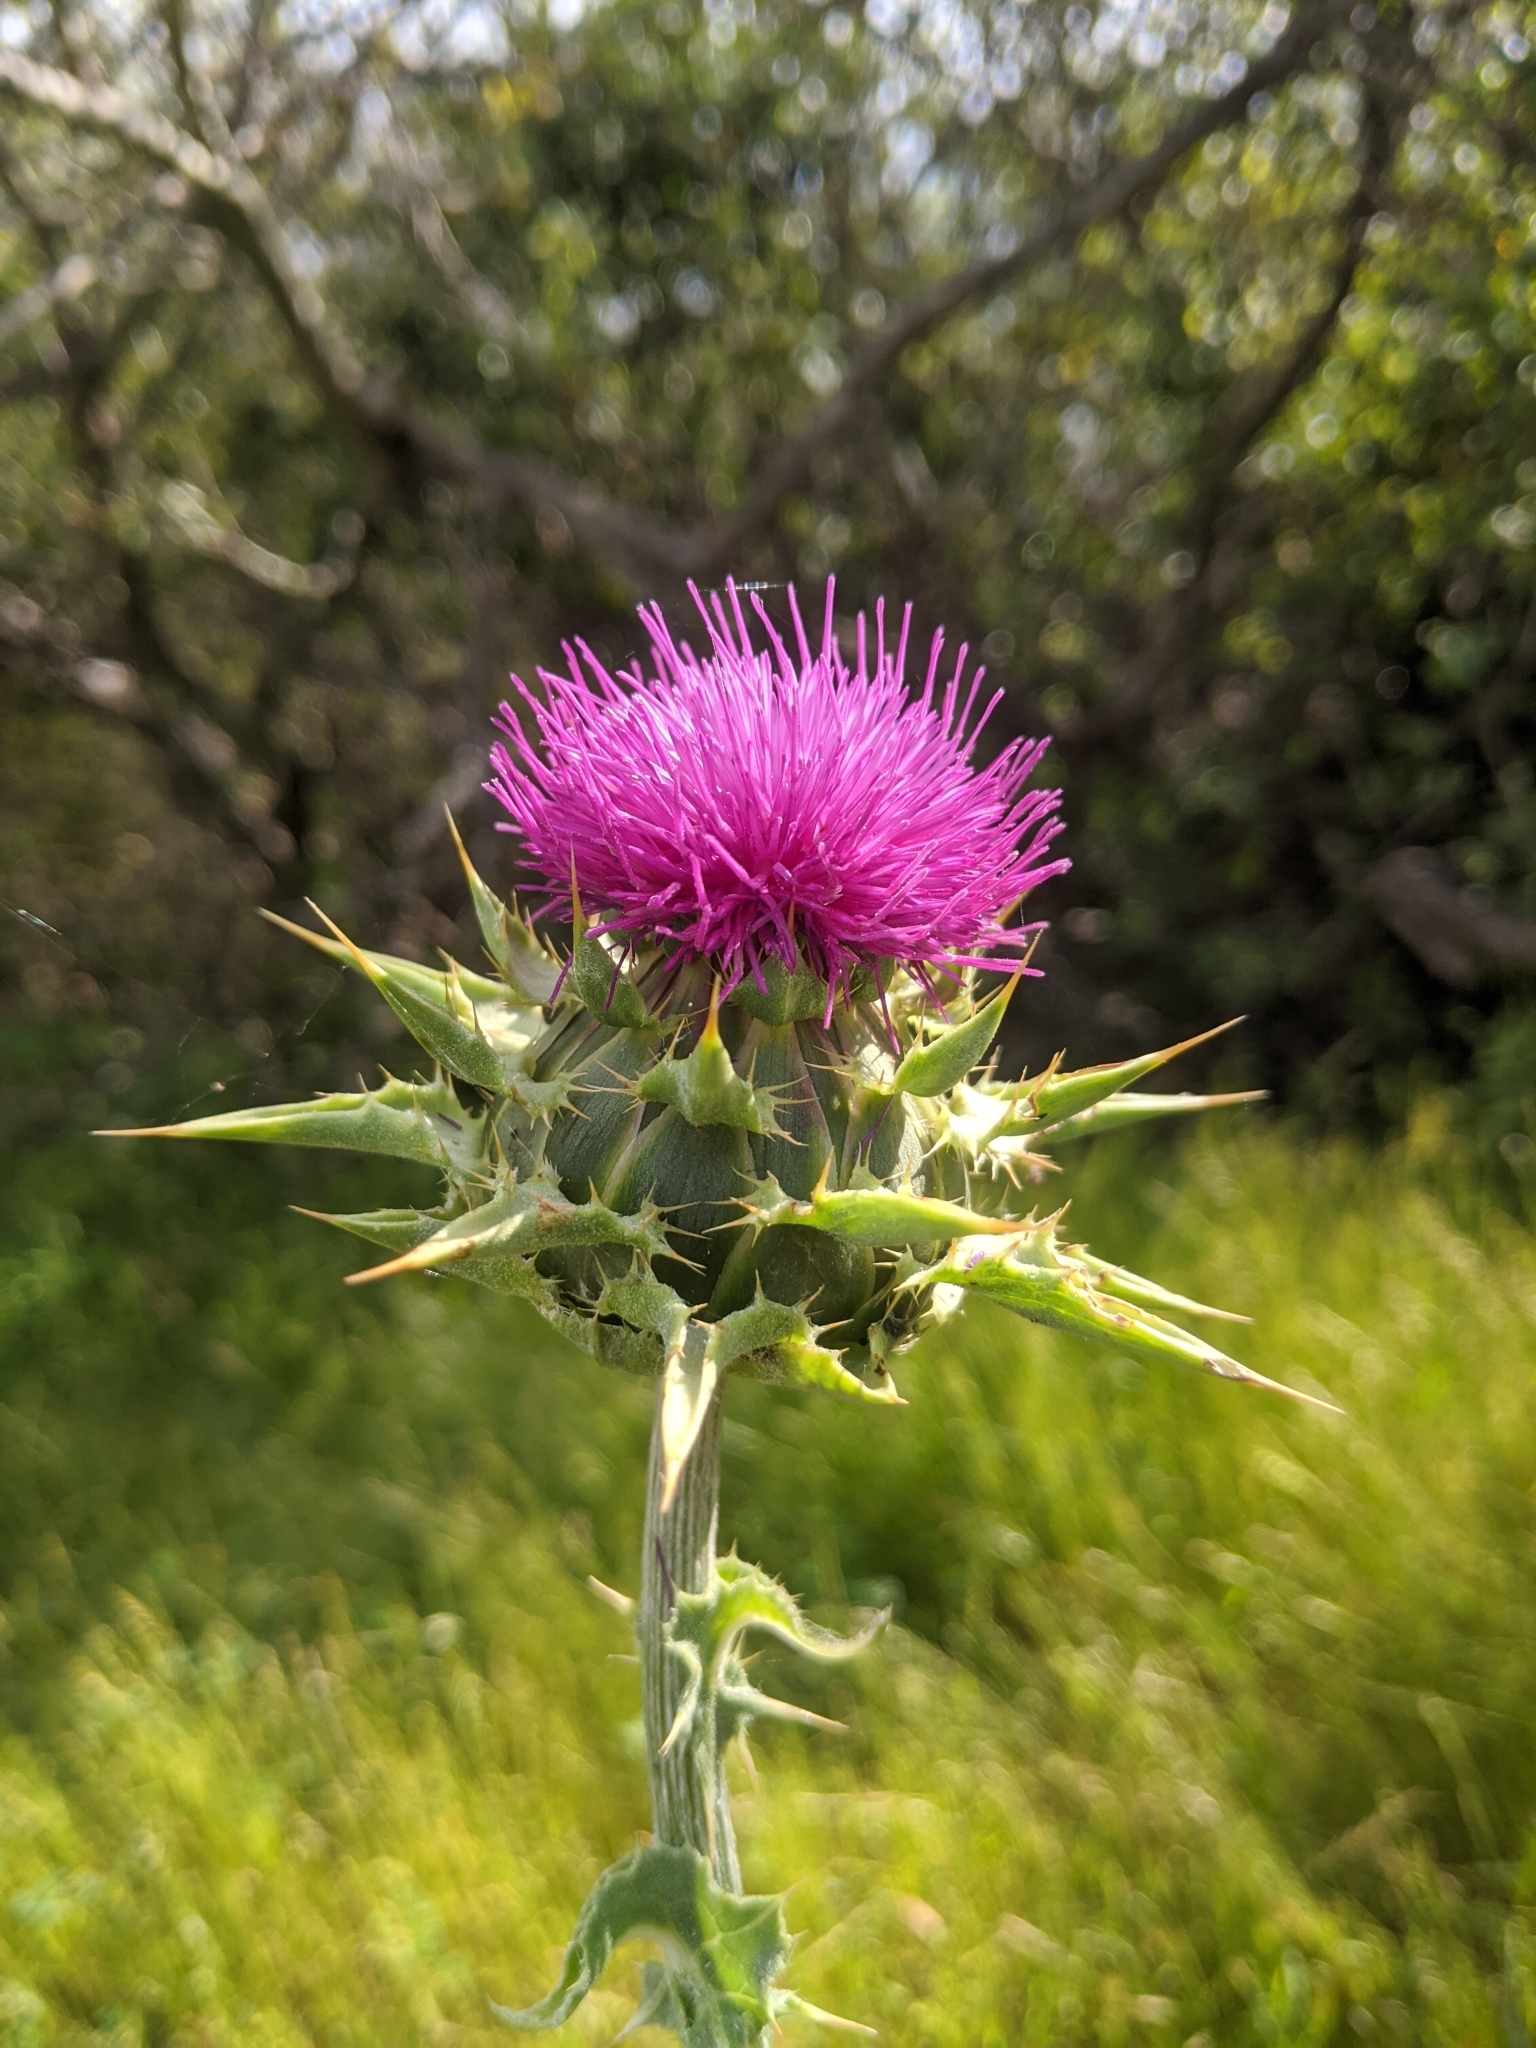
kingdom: Plantae
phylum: Tracheophyta
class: Magnoliopsida
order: Asterales
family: Asteraceae
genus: Silybum
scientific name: Silybum marianum
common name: Milk thistle
